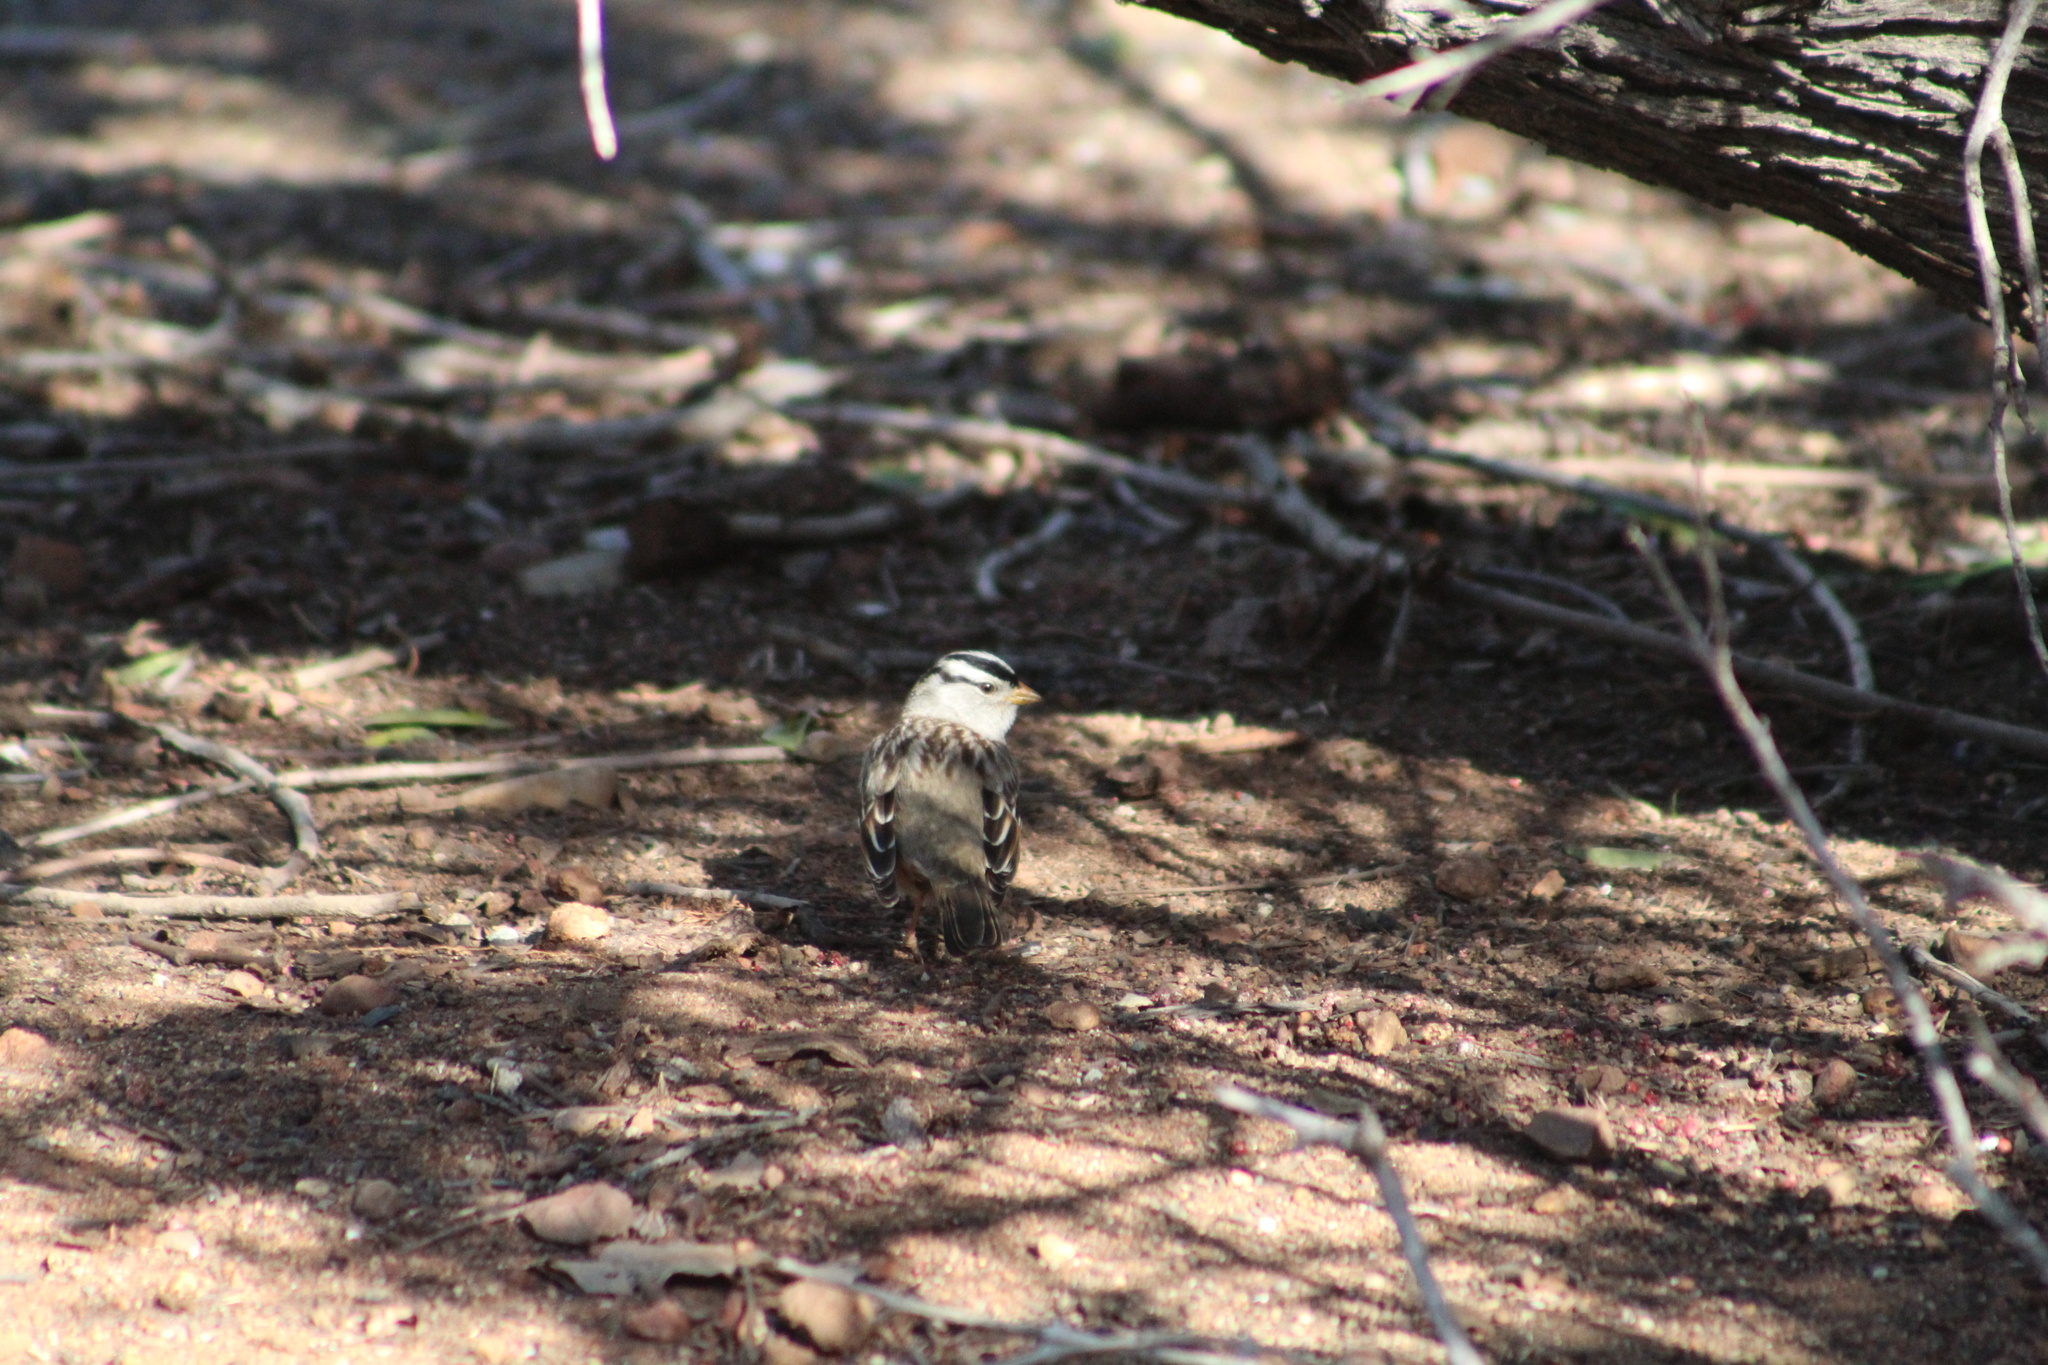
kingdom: Animalia
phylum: Chordata
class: Aves
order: Passeriformes
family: Passerellidae
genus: Zonotrichia
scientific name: Zonotrichia leucophrys
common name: White-crowned sparrow
